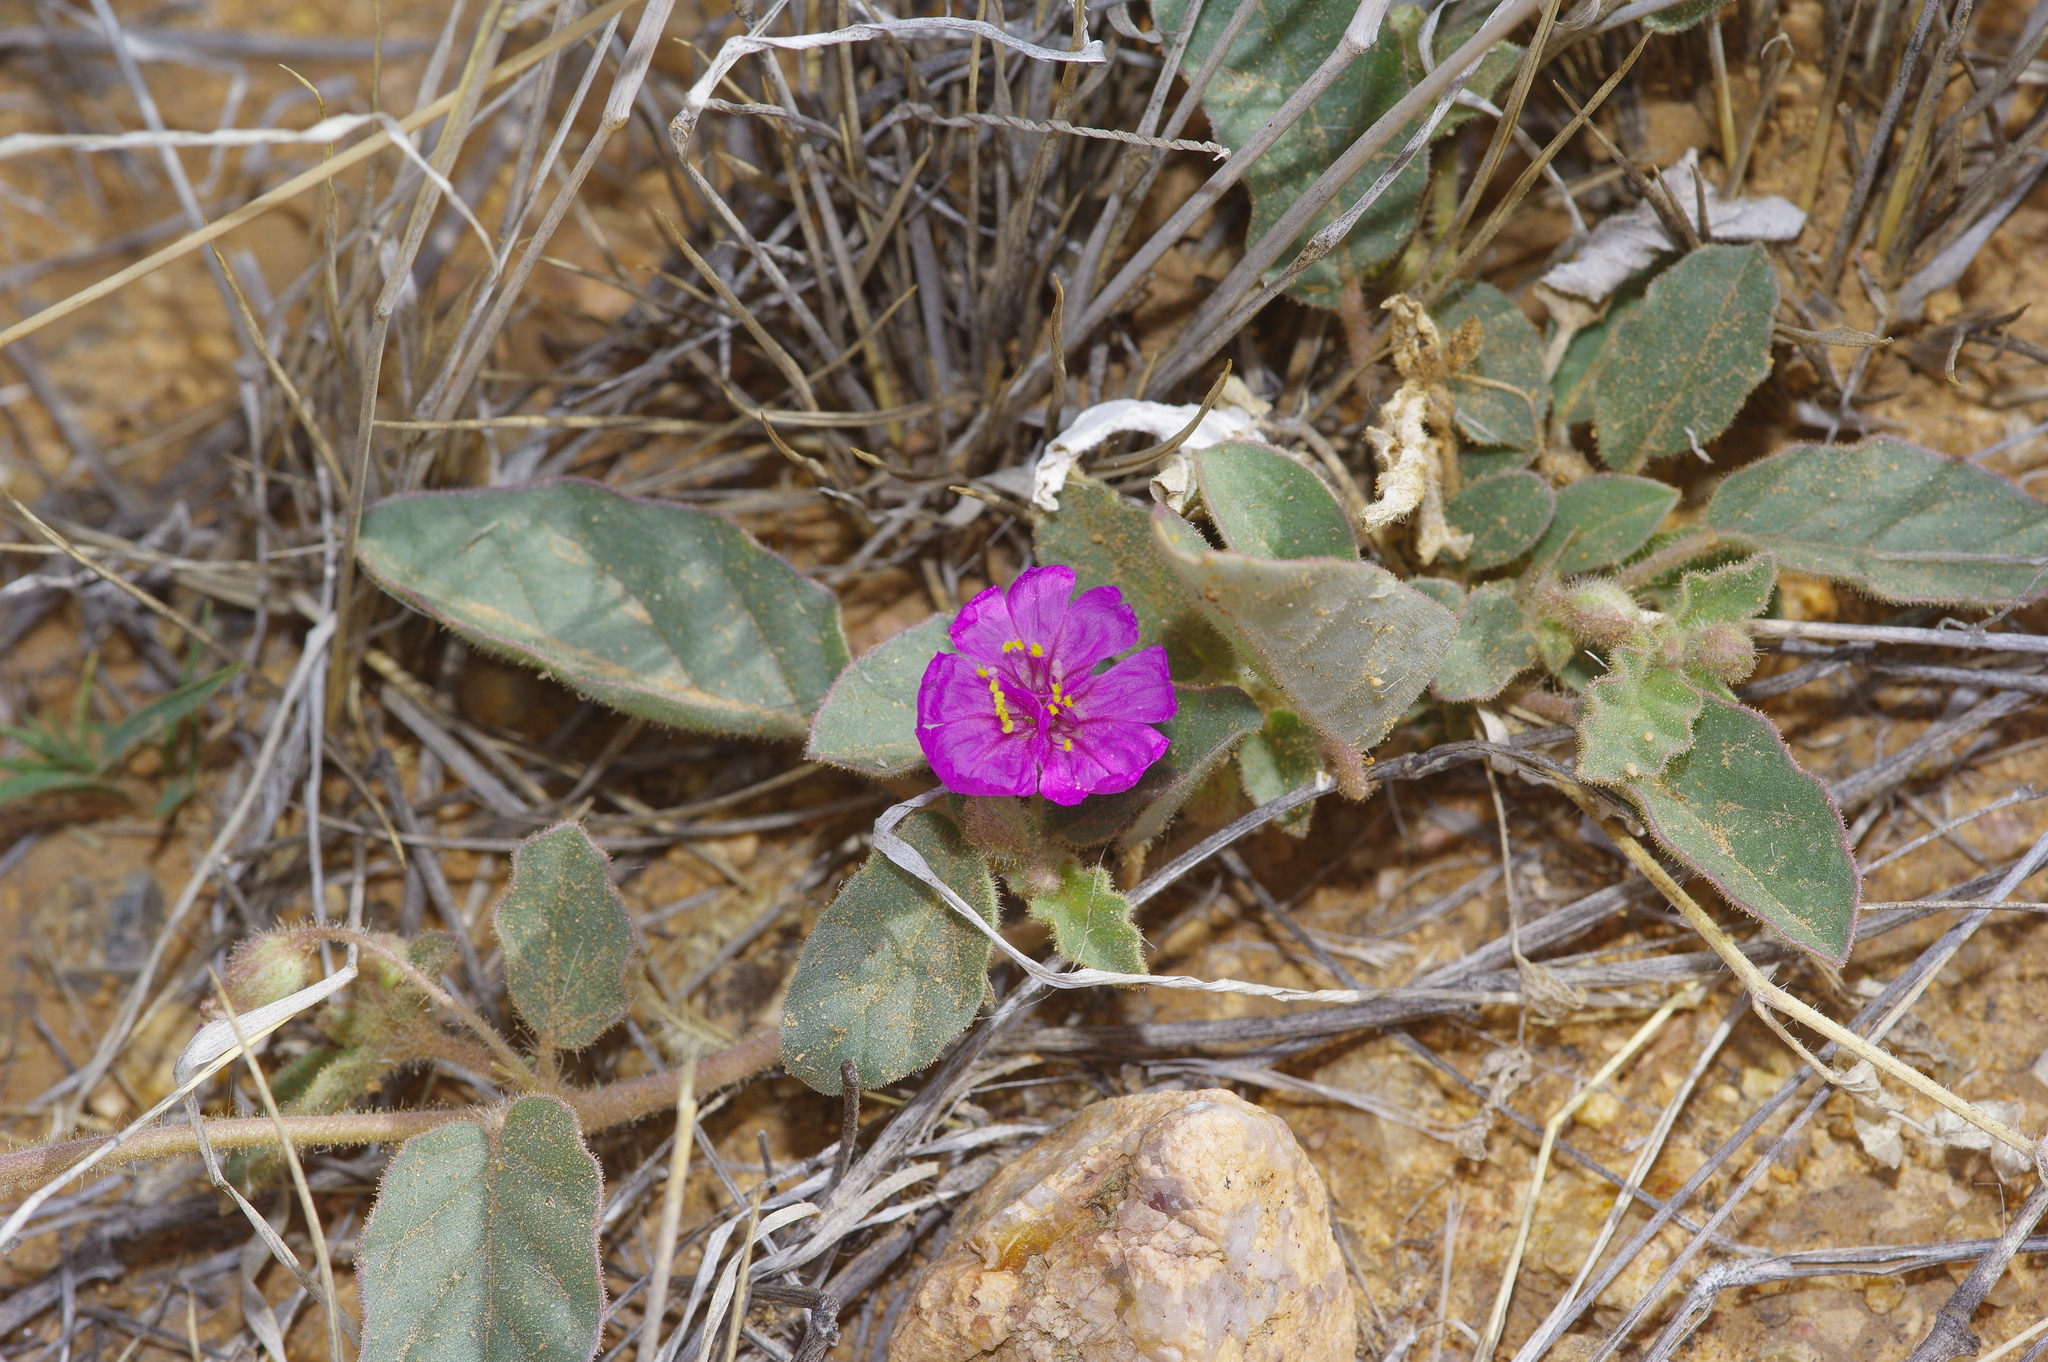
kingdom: Plantae
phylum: Tracheophyta
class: Magnoliopsida
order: Caryophyllales
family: Nyctaginaceae
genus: Allionia
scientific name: Allionia incarnata
